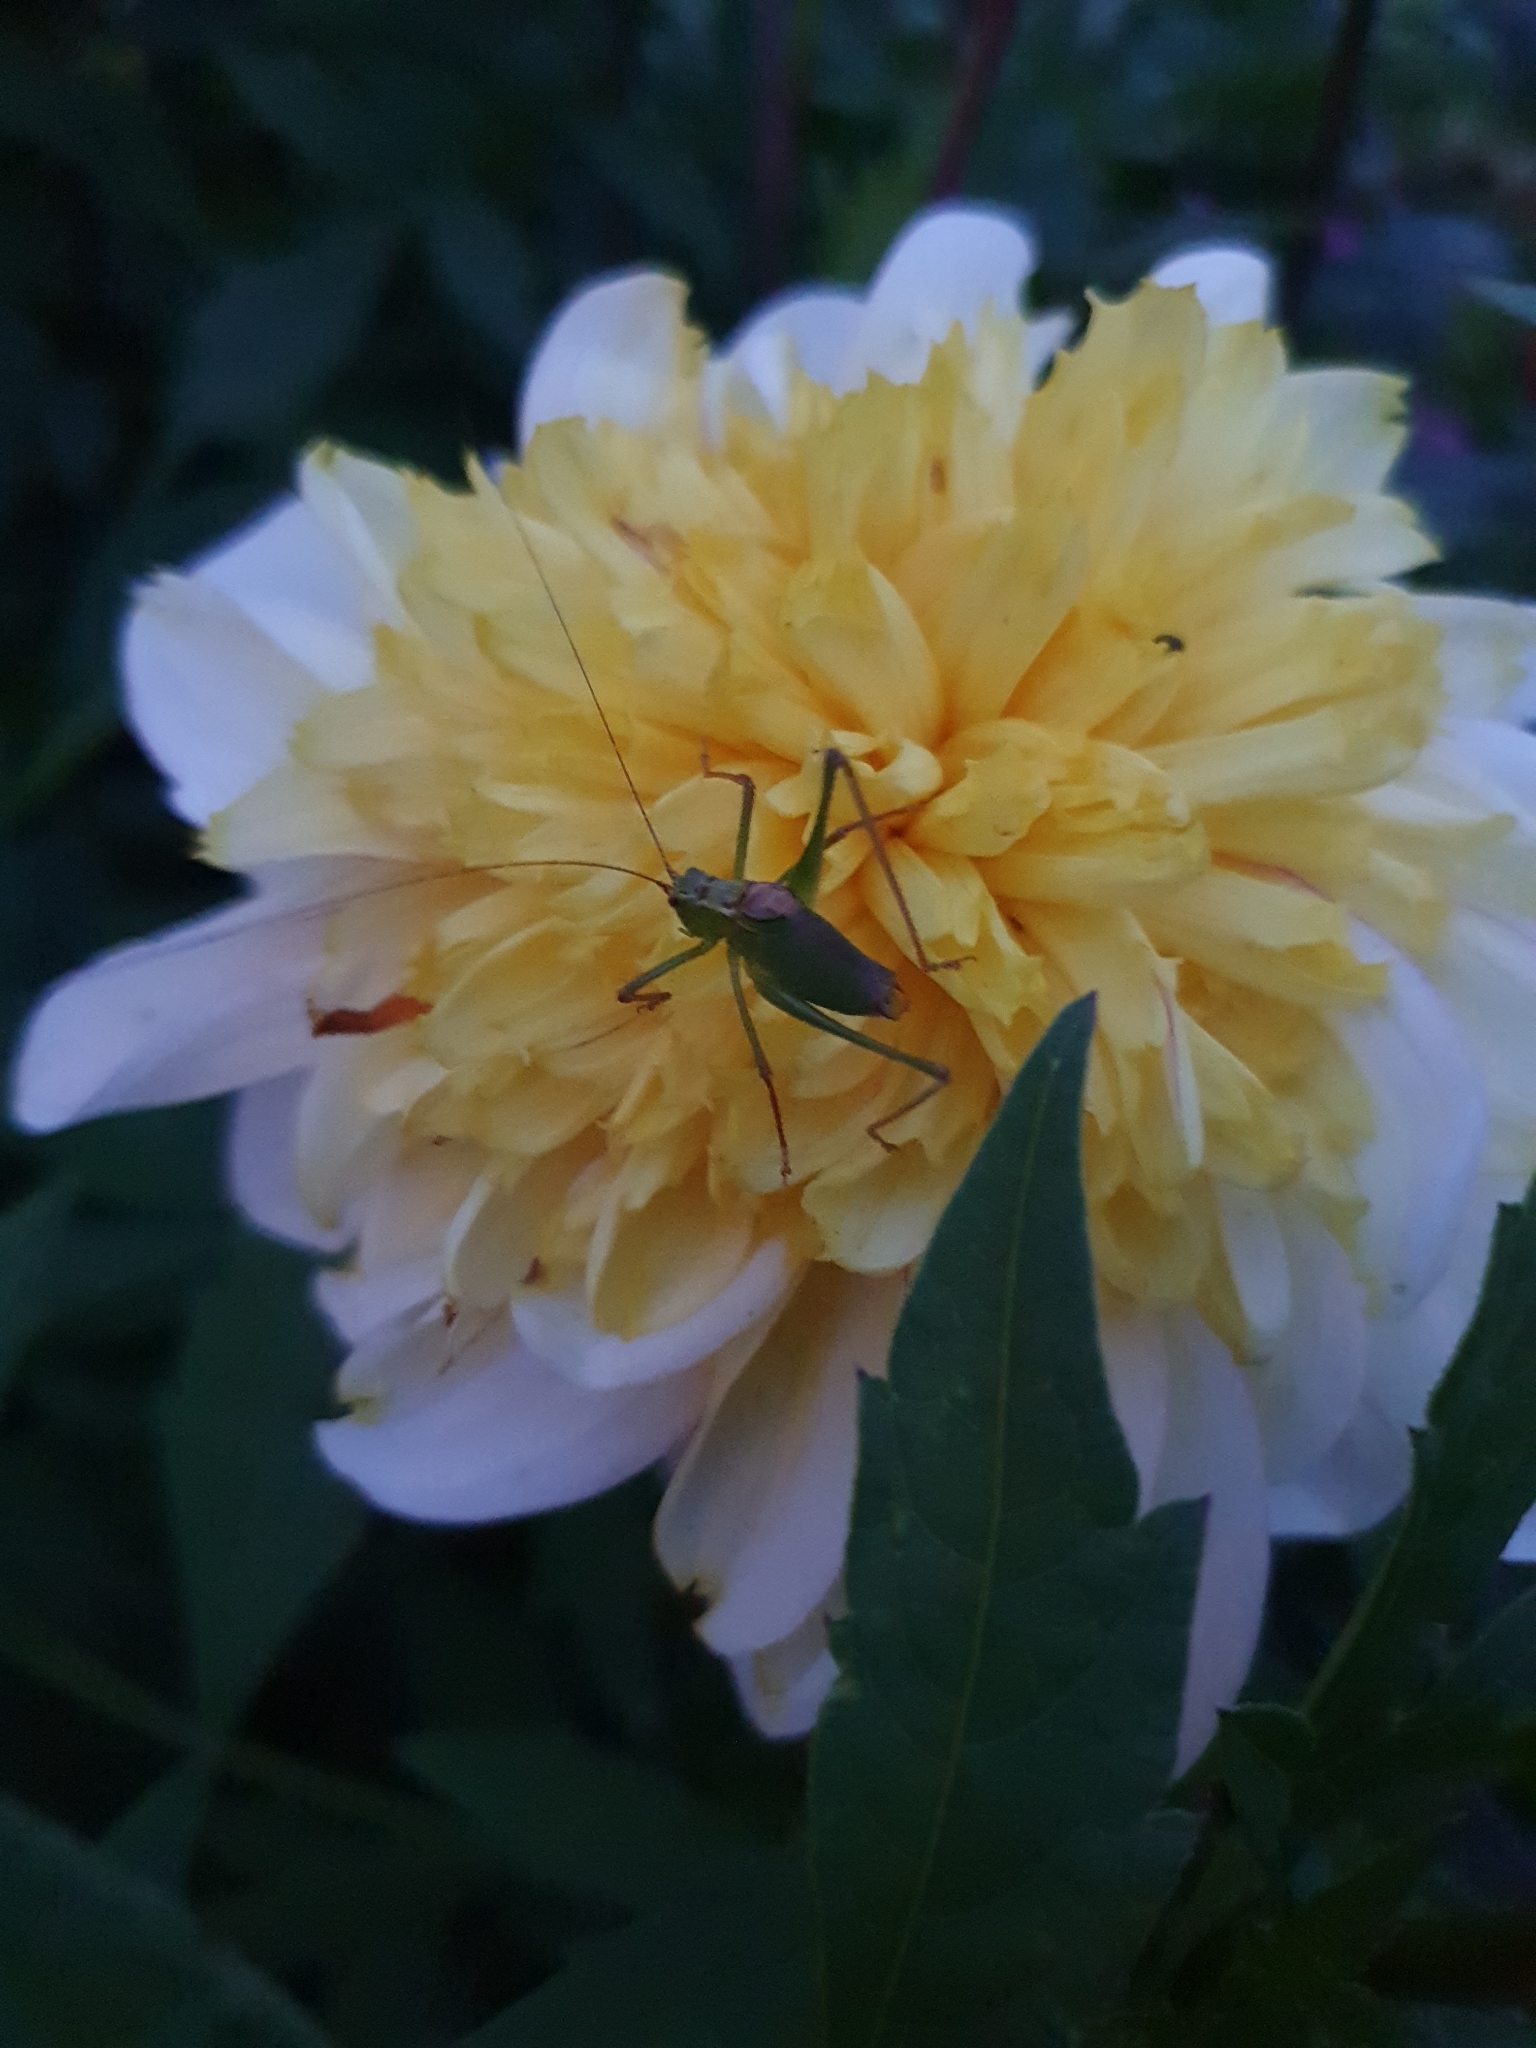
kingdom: Animalia
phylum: Arthropoda
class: Insecta
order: Orthoptera
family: Tettigoniidae
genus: Leptophyes
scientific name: Leptophyes punctatissima
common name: Speckled bush-cricket
